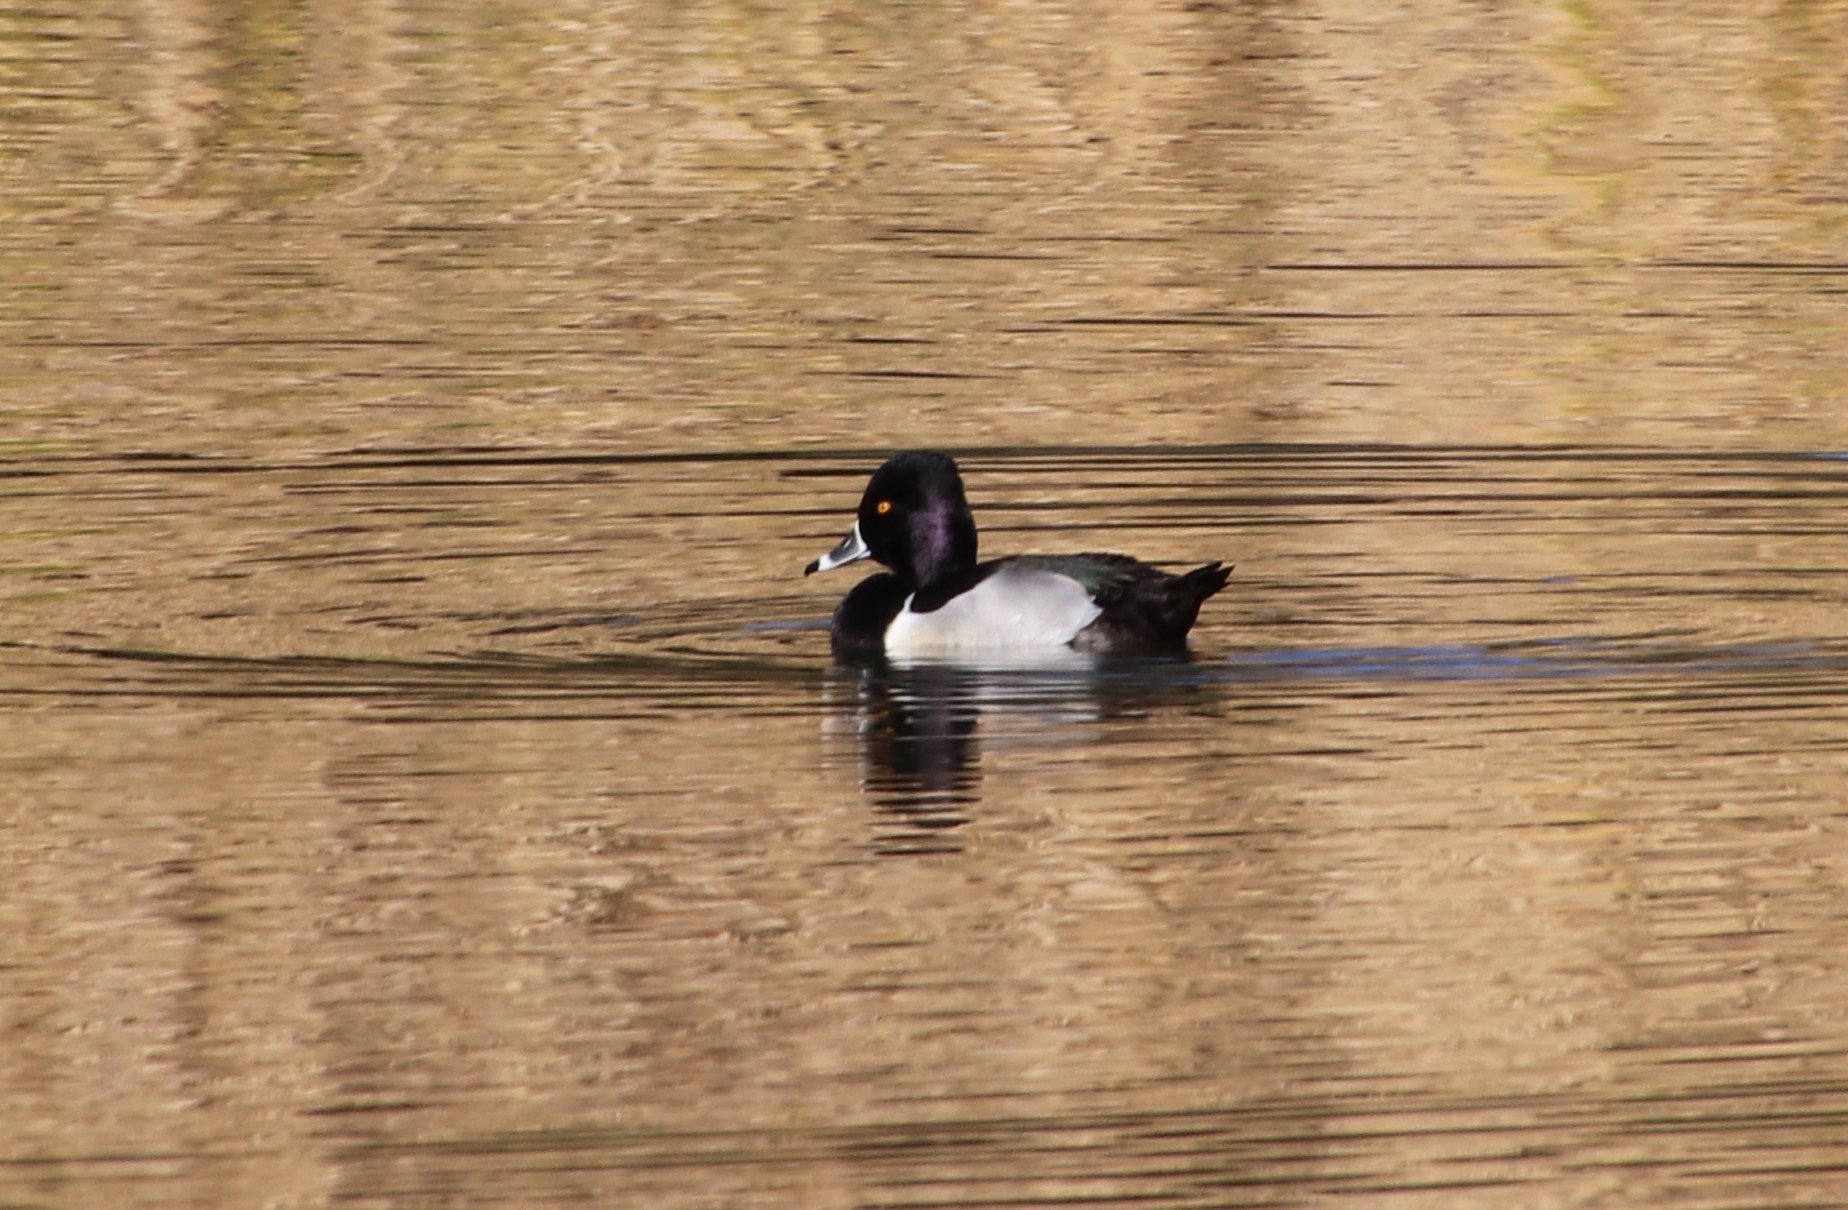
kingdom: Animalia
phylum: Chordata
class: Aves
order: Anseriformes
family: Anatidae
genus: Aythya
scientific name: Aythya collaris
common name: Ring-necked duck
